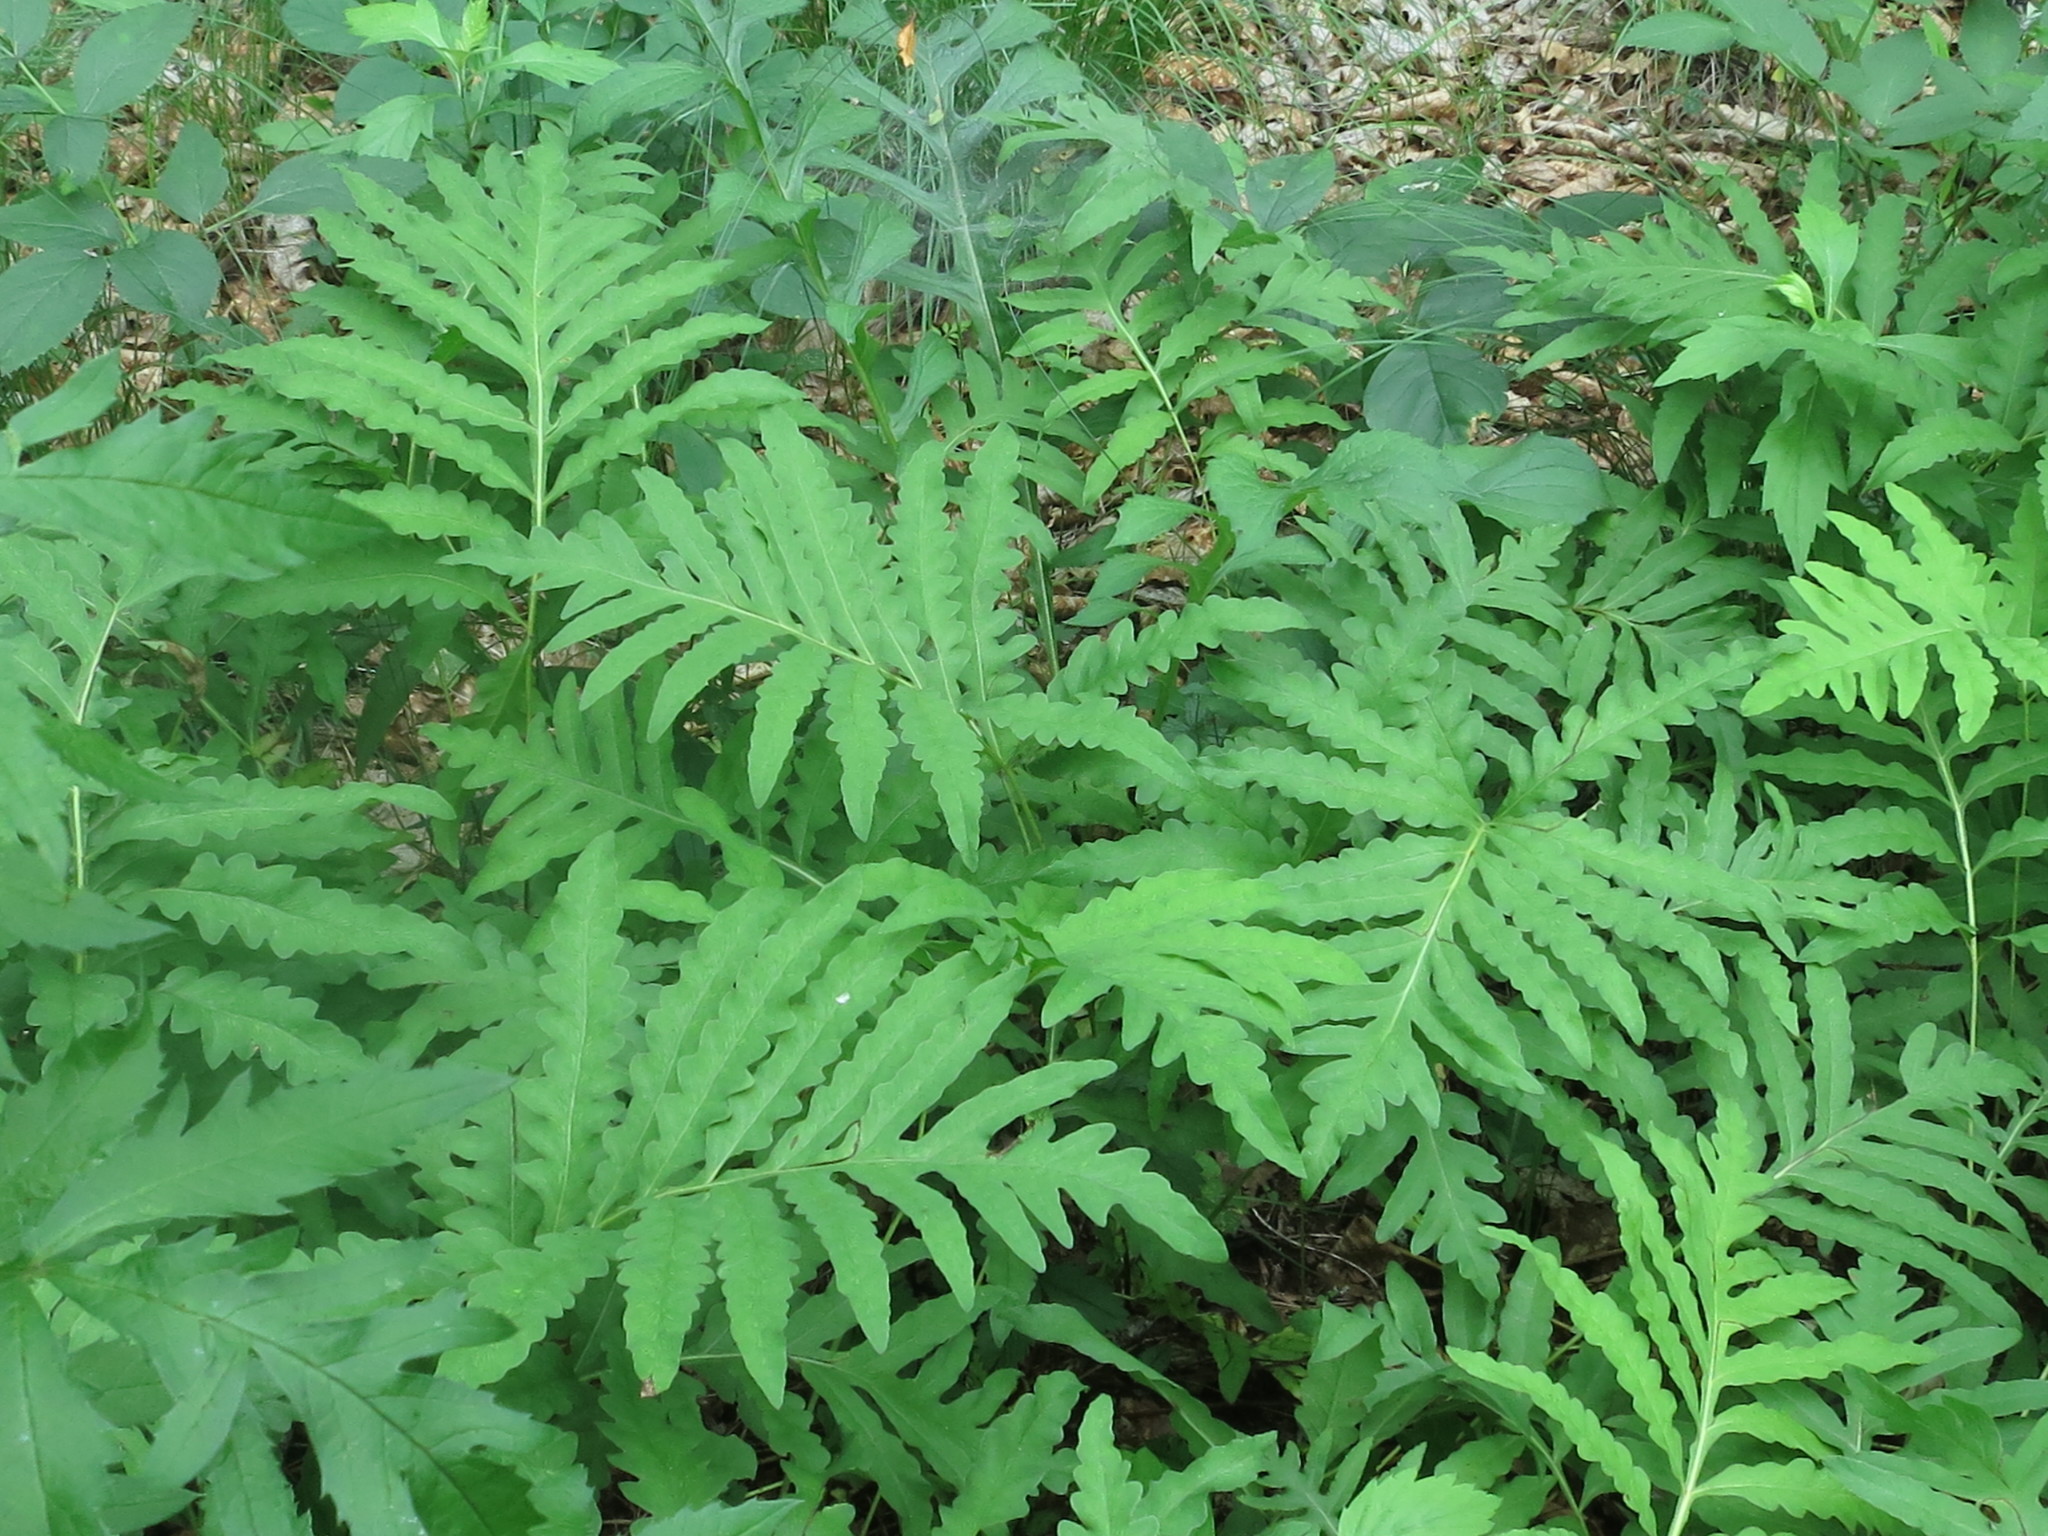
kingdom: Plantae
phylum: Tracheophyta
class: Polypodiopsida
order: Polypodiales
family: Onocleaceae
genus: Onoclea
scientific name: Onoclea sensibilis
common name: Sensitive fern
